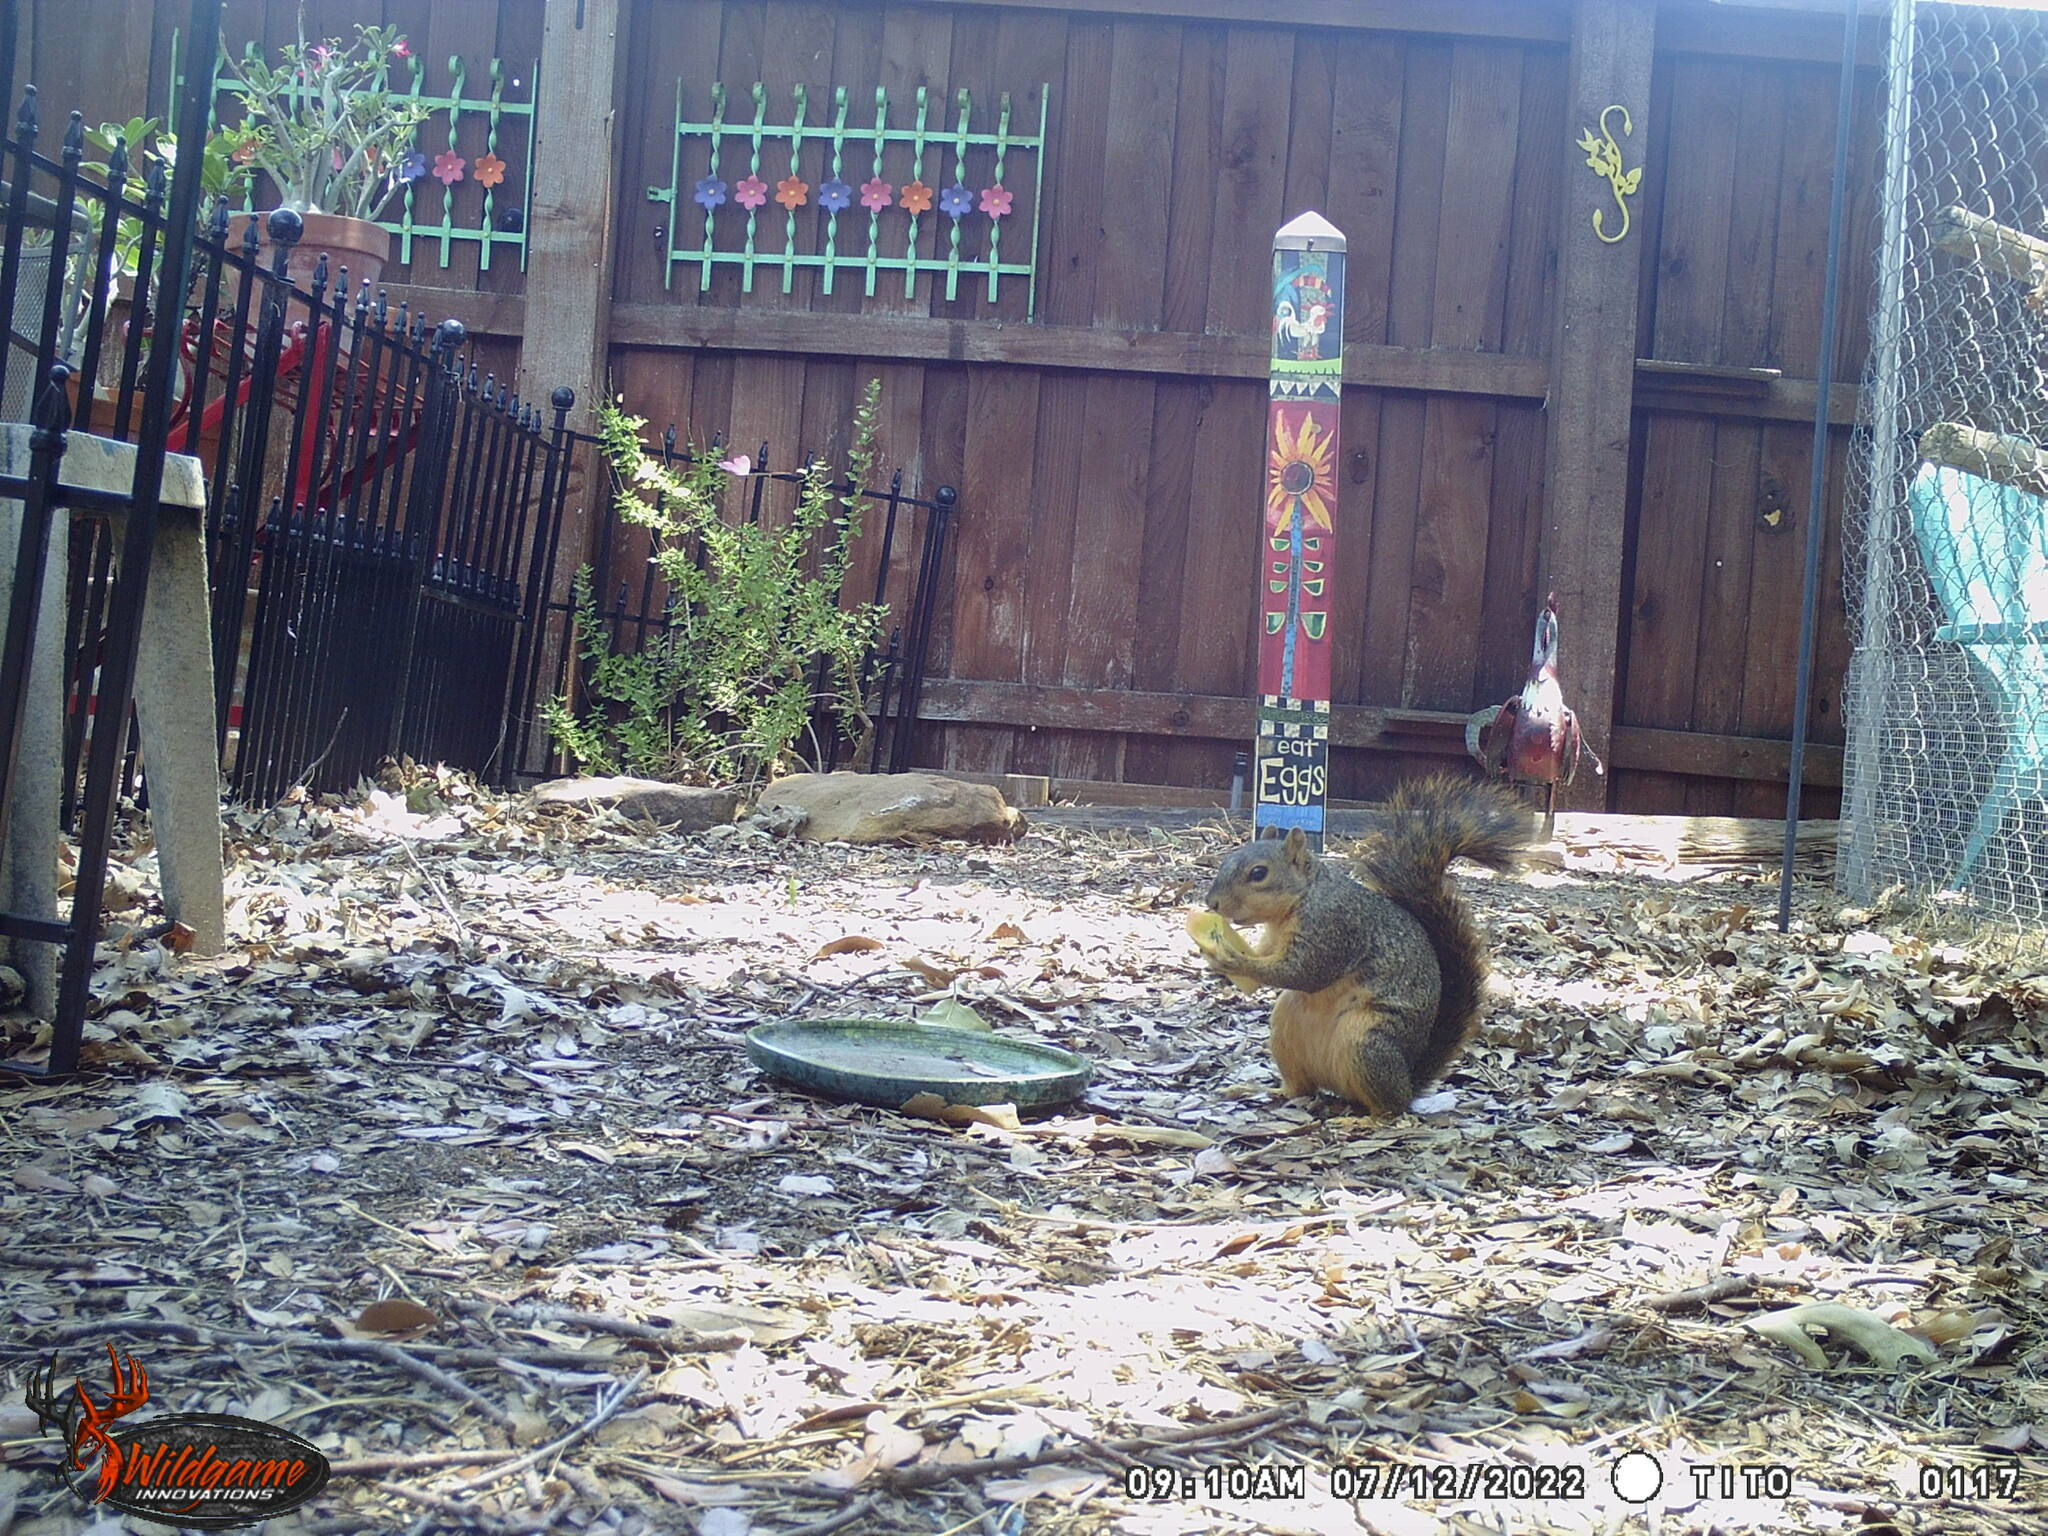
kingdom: Animalia
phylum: Chordata
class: Mammalia
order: Rodentia
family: Sciuridae
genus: Sciurus
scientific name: Sciurus niger
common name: Fox squirrel
